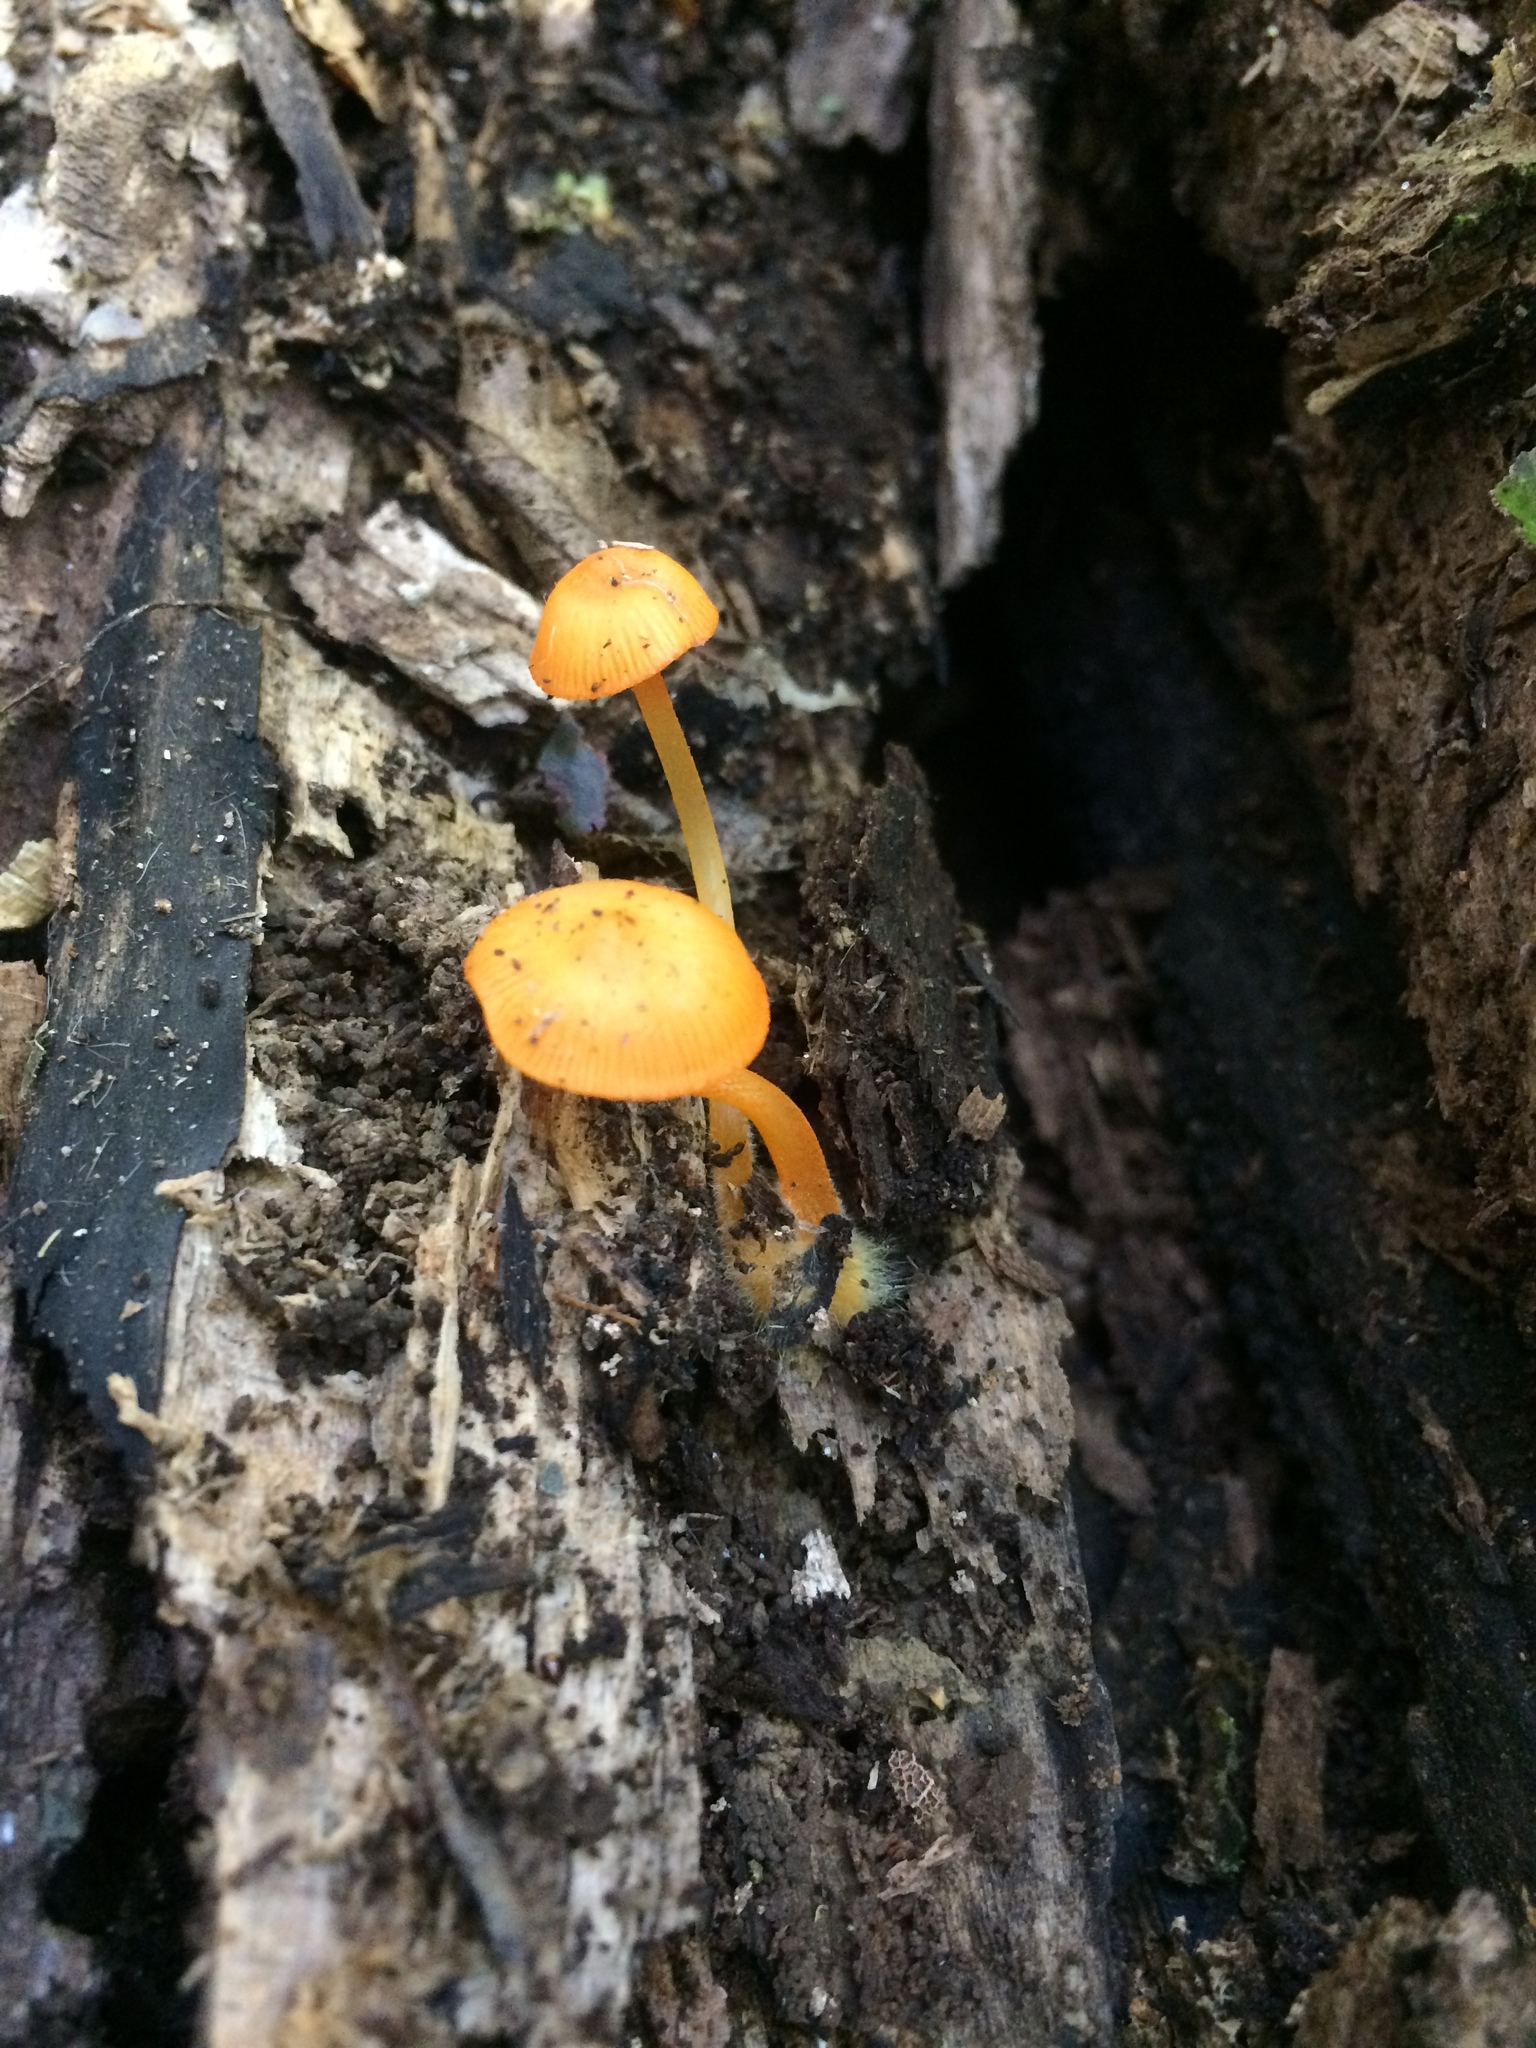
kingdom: Fungi
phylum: Basidiomycota
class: Agaricomycetes
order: Agaricales
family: Mycenaceae
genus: Mycena
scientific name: Mycena leaiana
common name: Orange mycena
